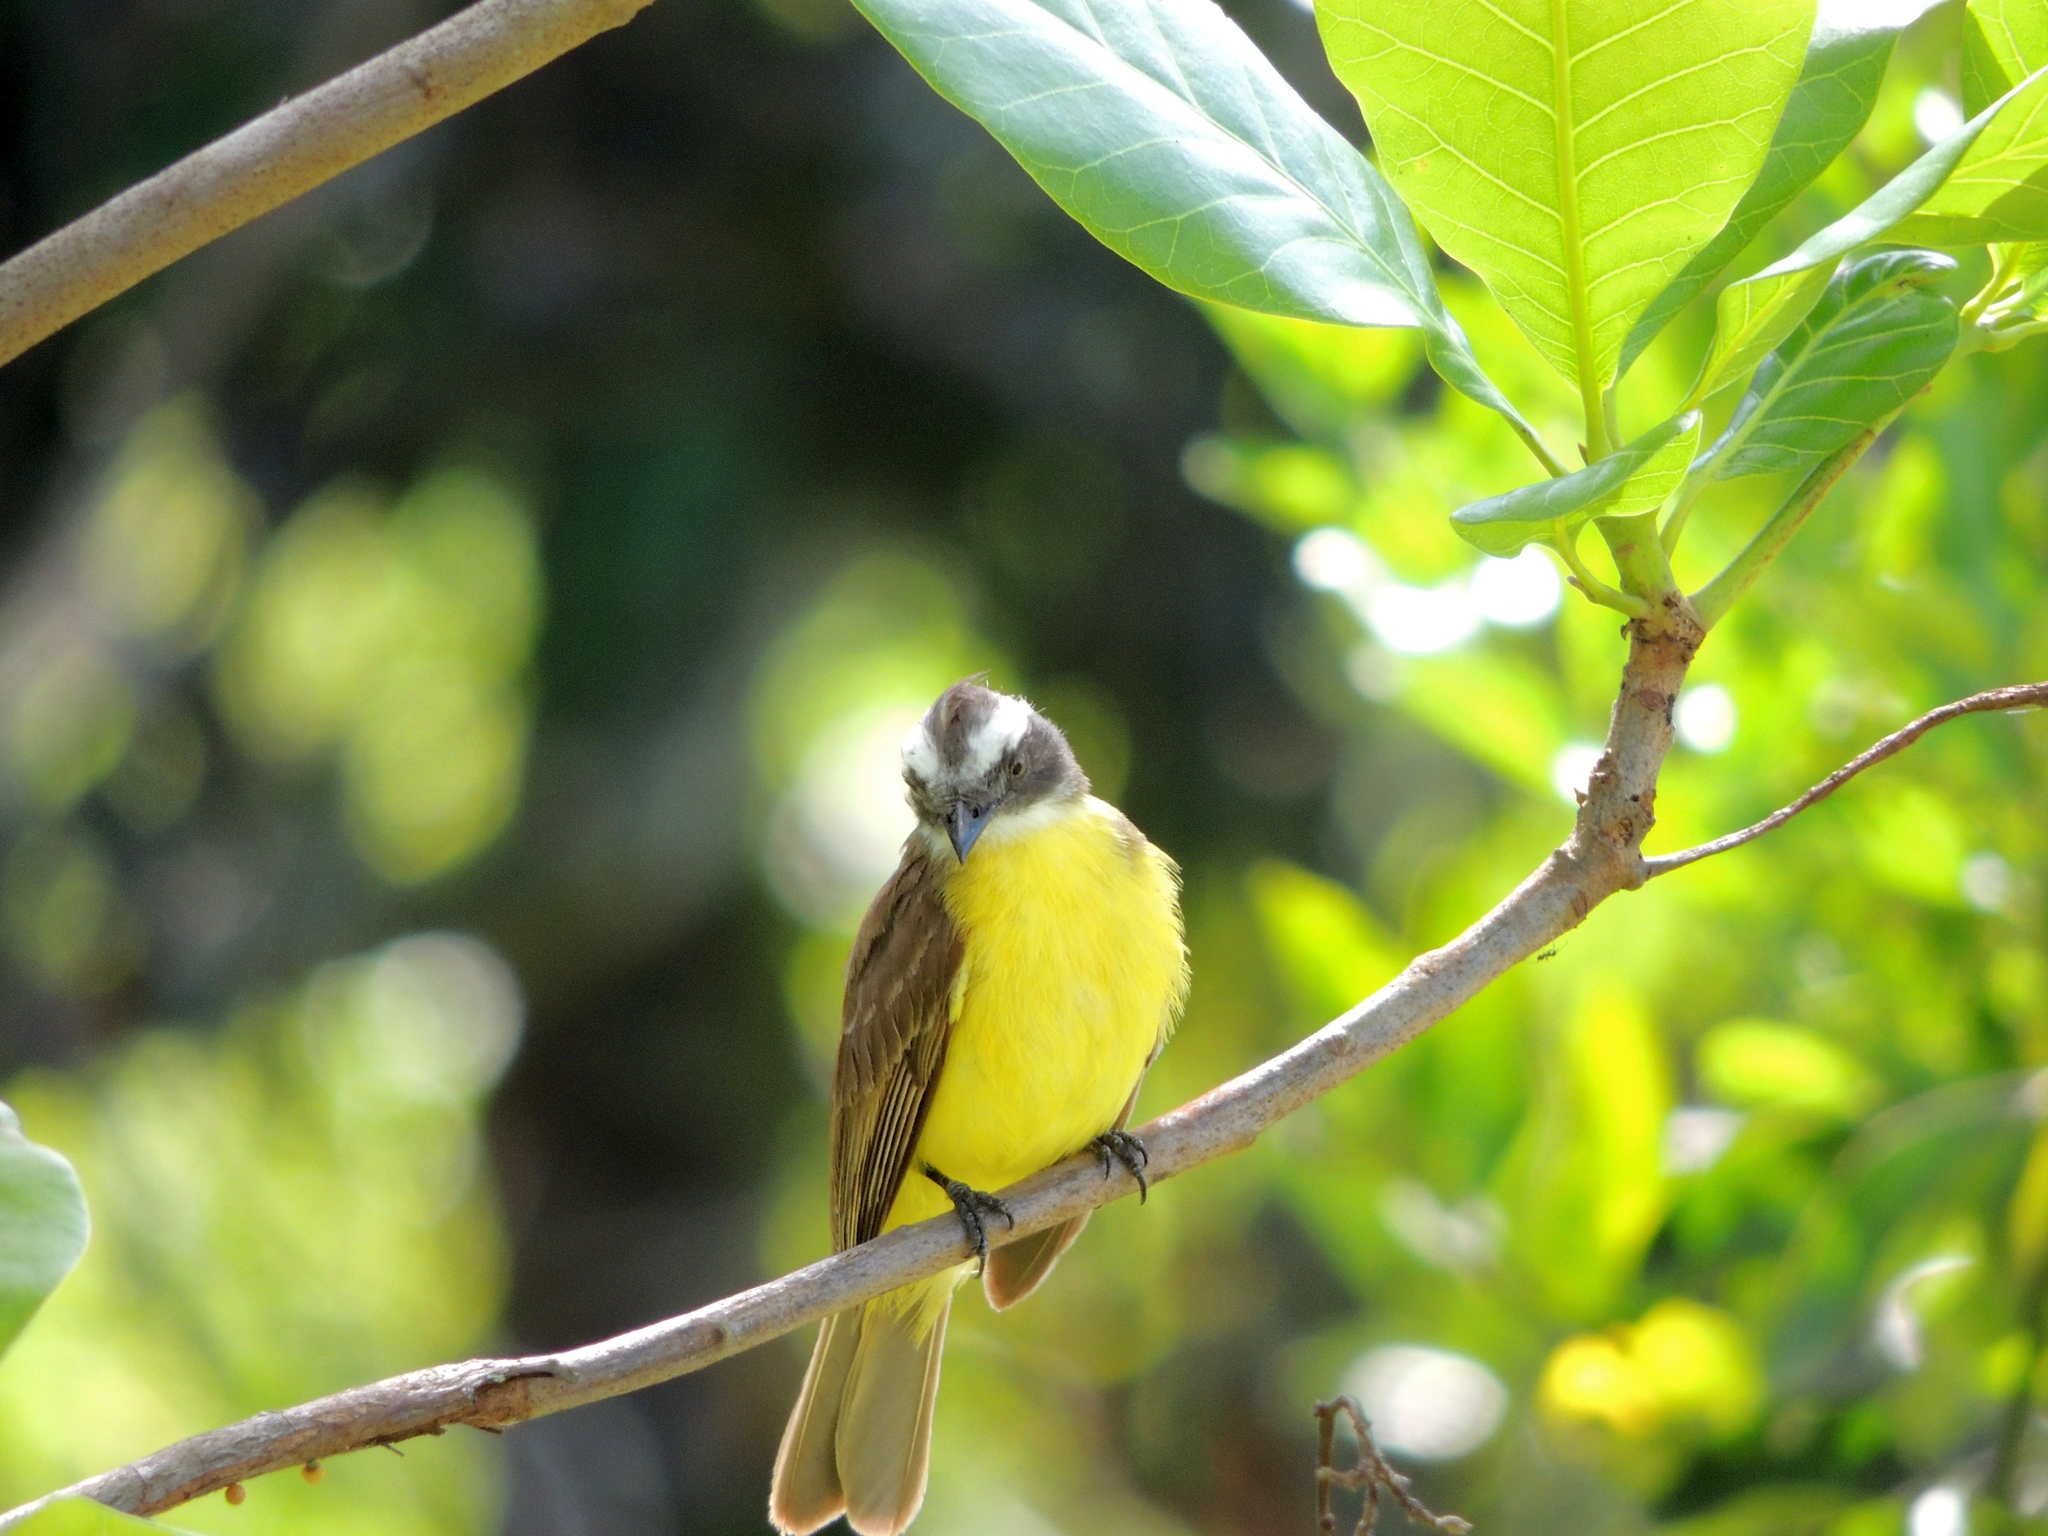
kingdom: Animalia
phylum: Chordata
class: Aves
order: Passeriformes
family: Tyrannidae
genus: Myiozetetes
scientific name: Myiozetetes similis
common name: Social flycatcher
